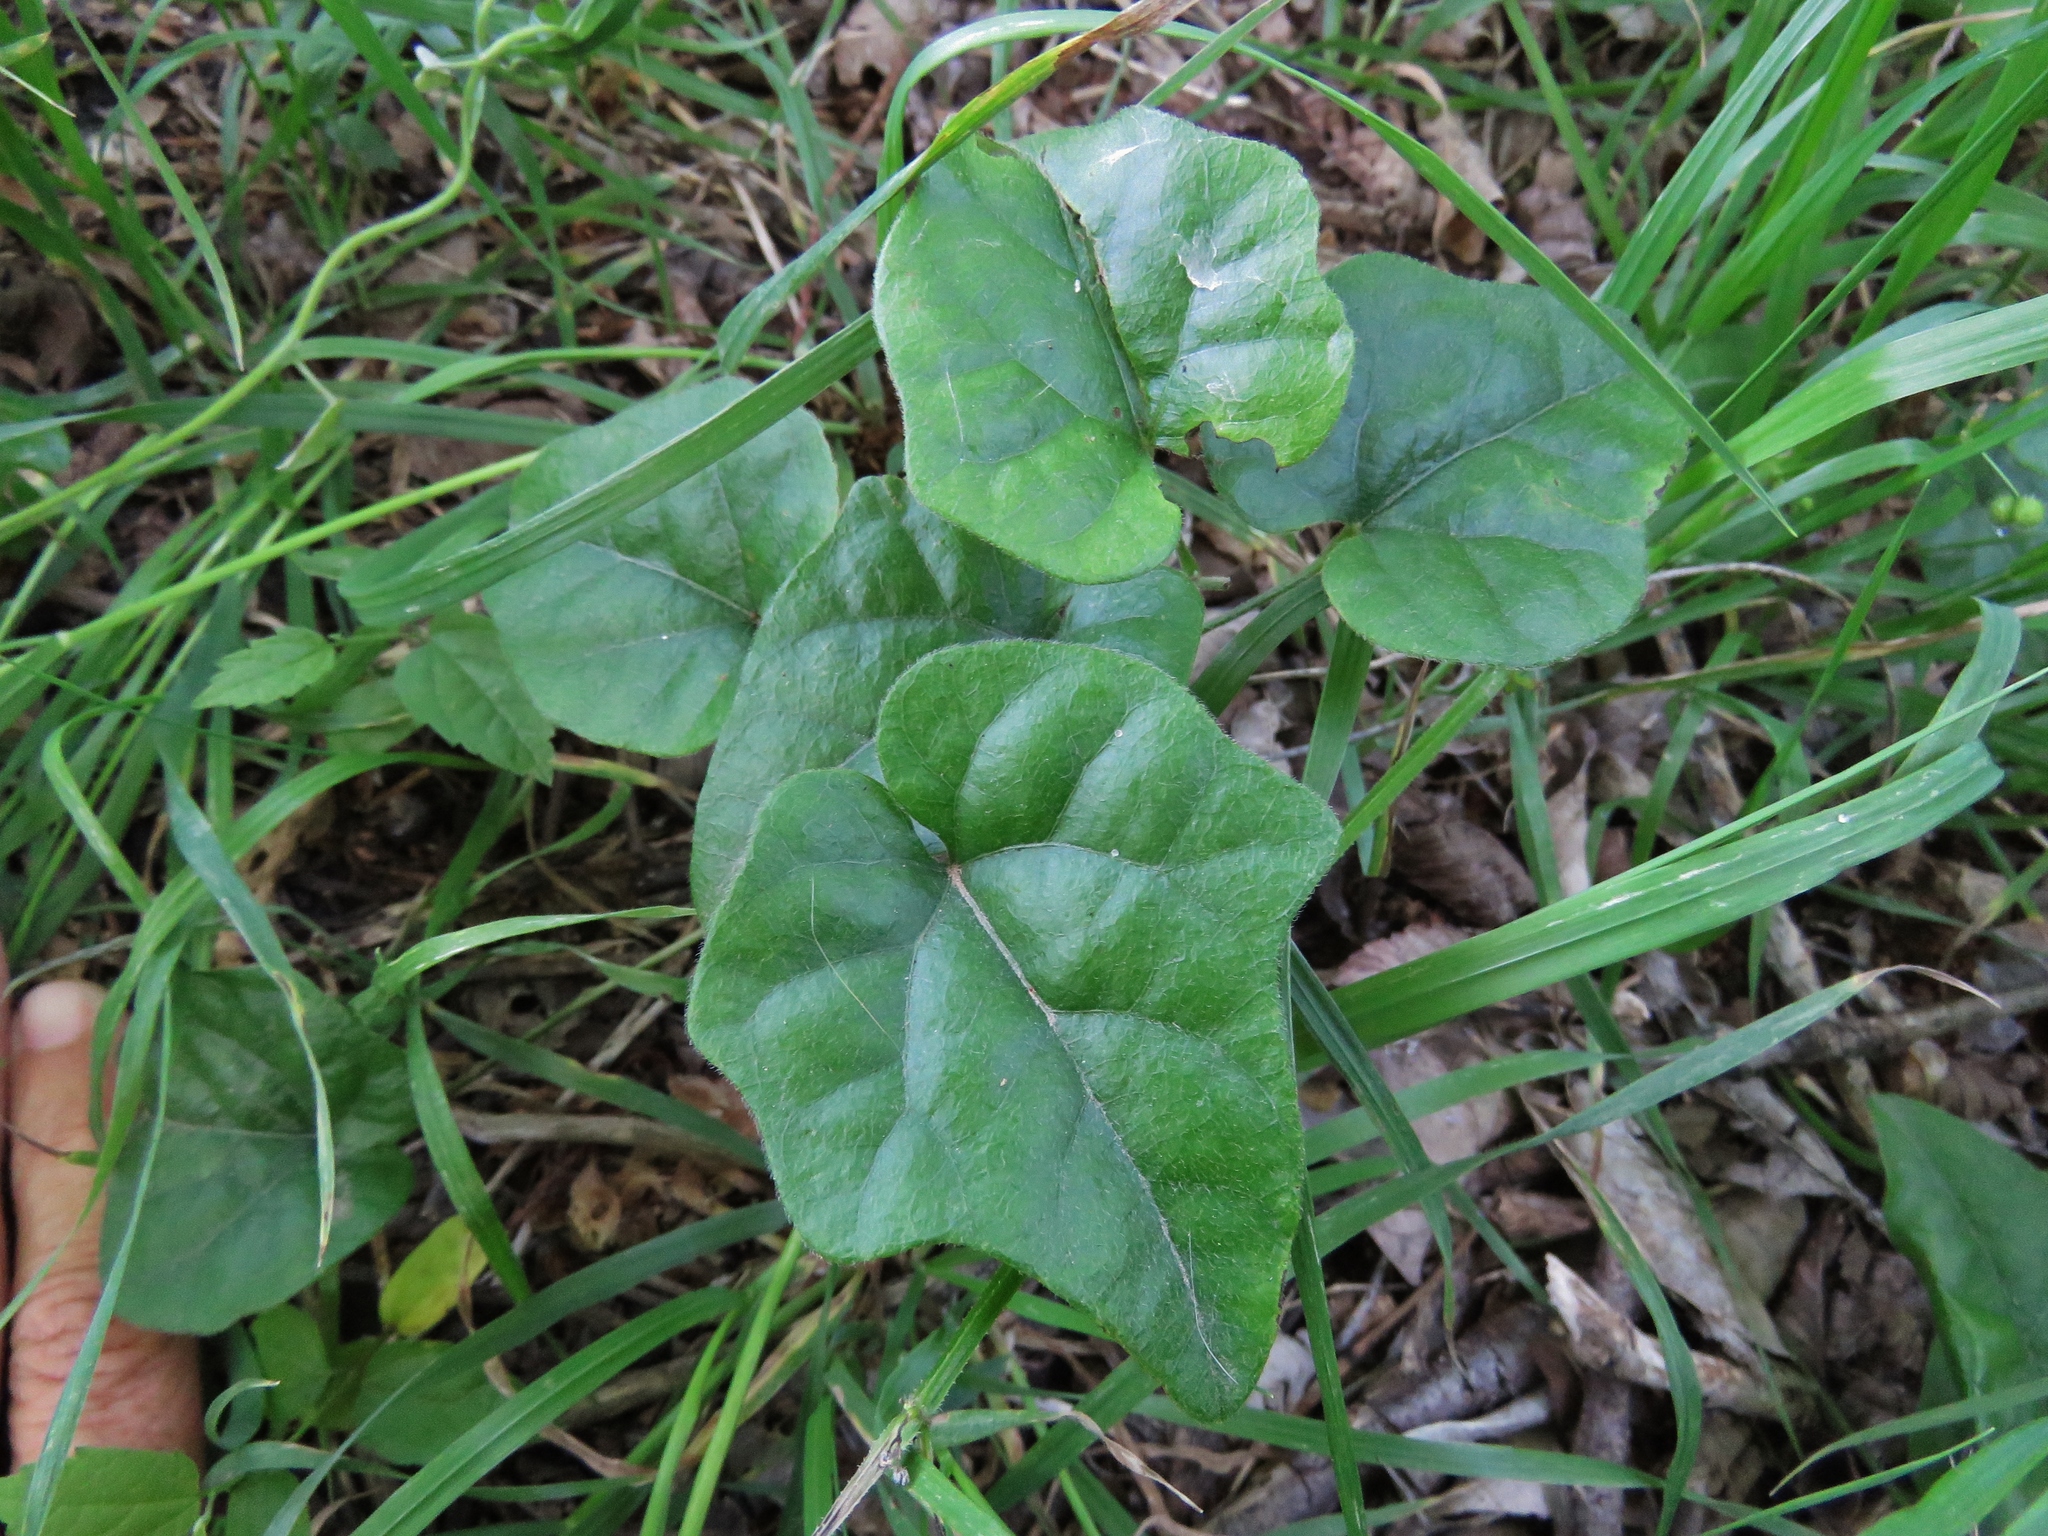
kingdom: Plantae
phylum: Tracheophyta
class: Magnoliopsida
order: Ranunculales
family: Menispermaceae
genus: Cocculus
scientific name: Cocculus carolinus
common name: Carolina moonseed
